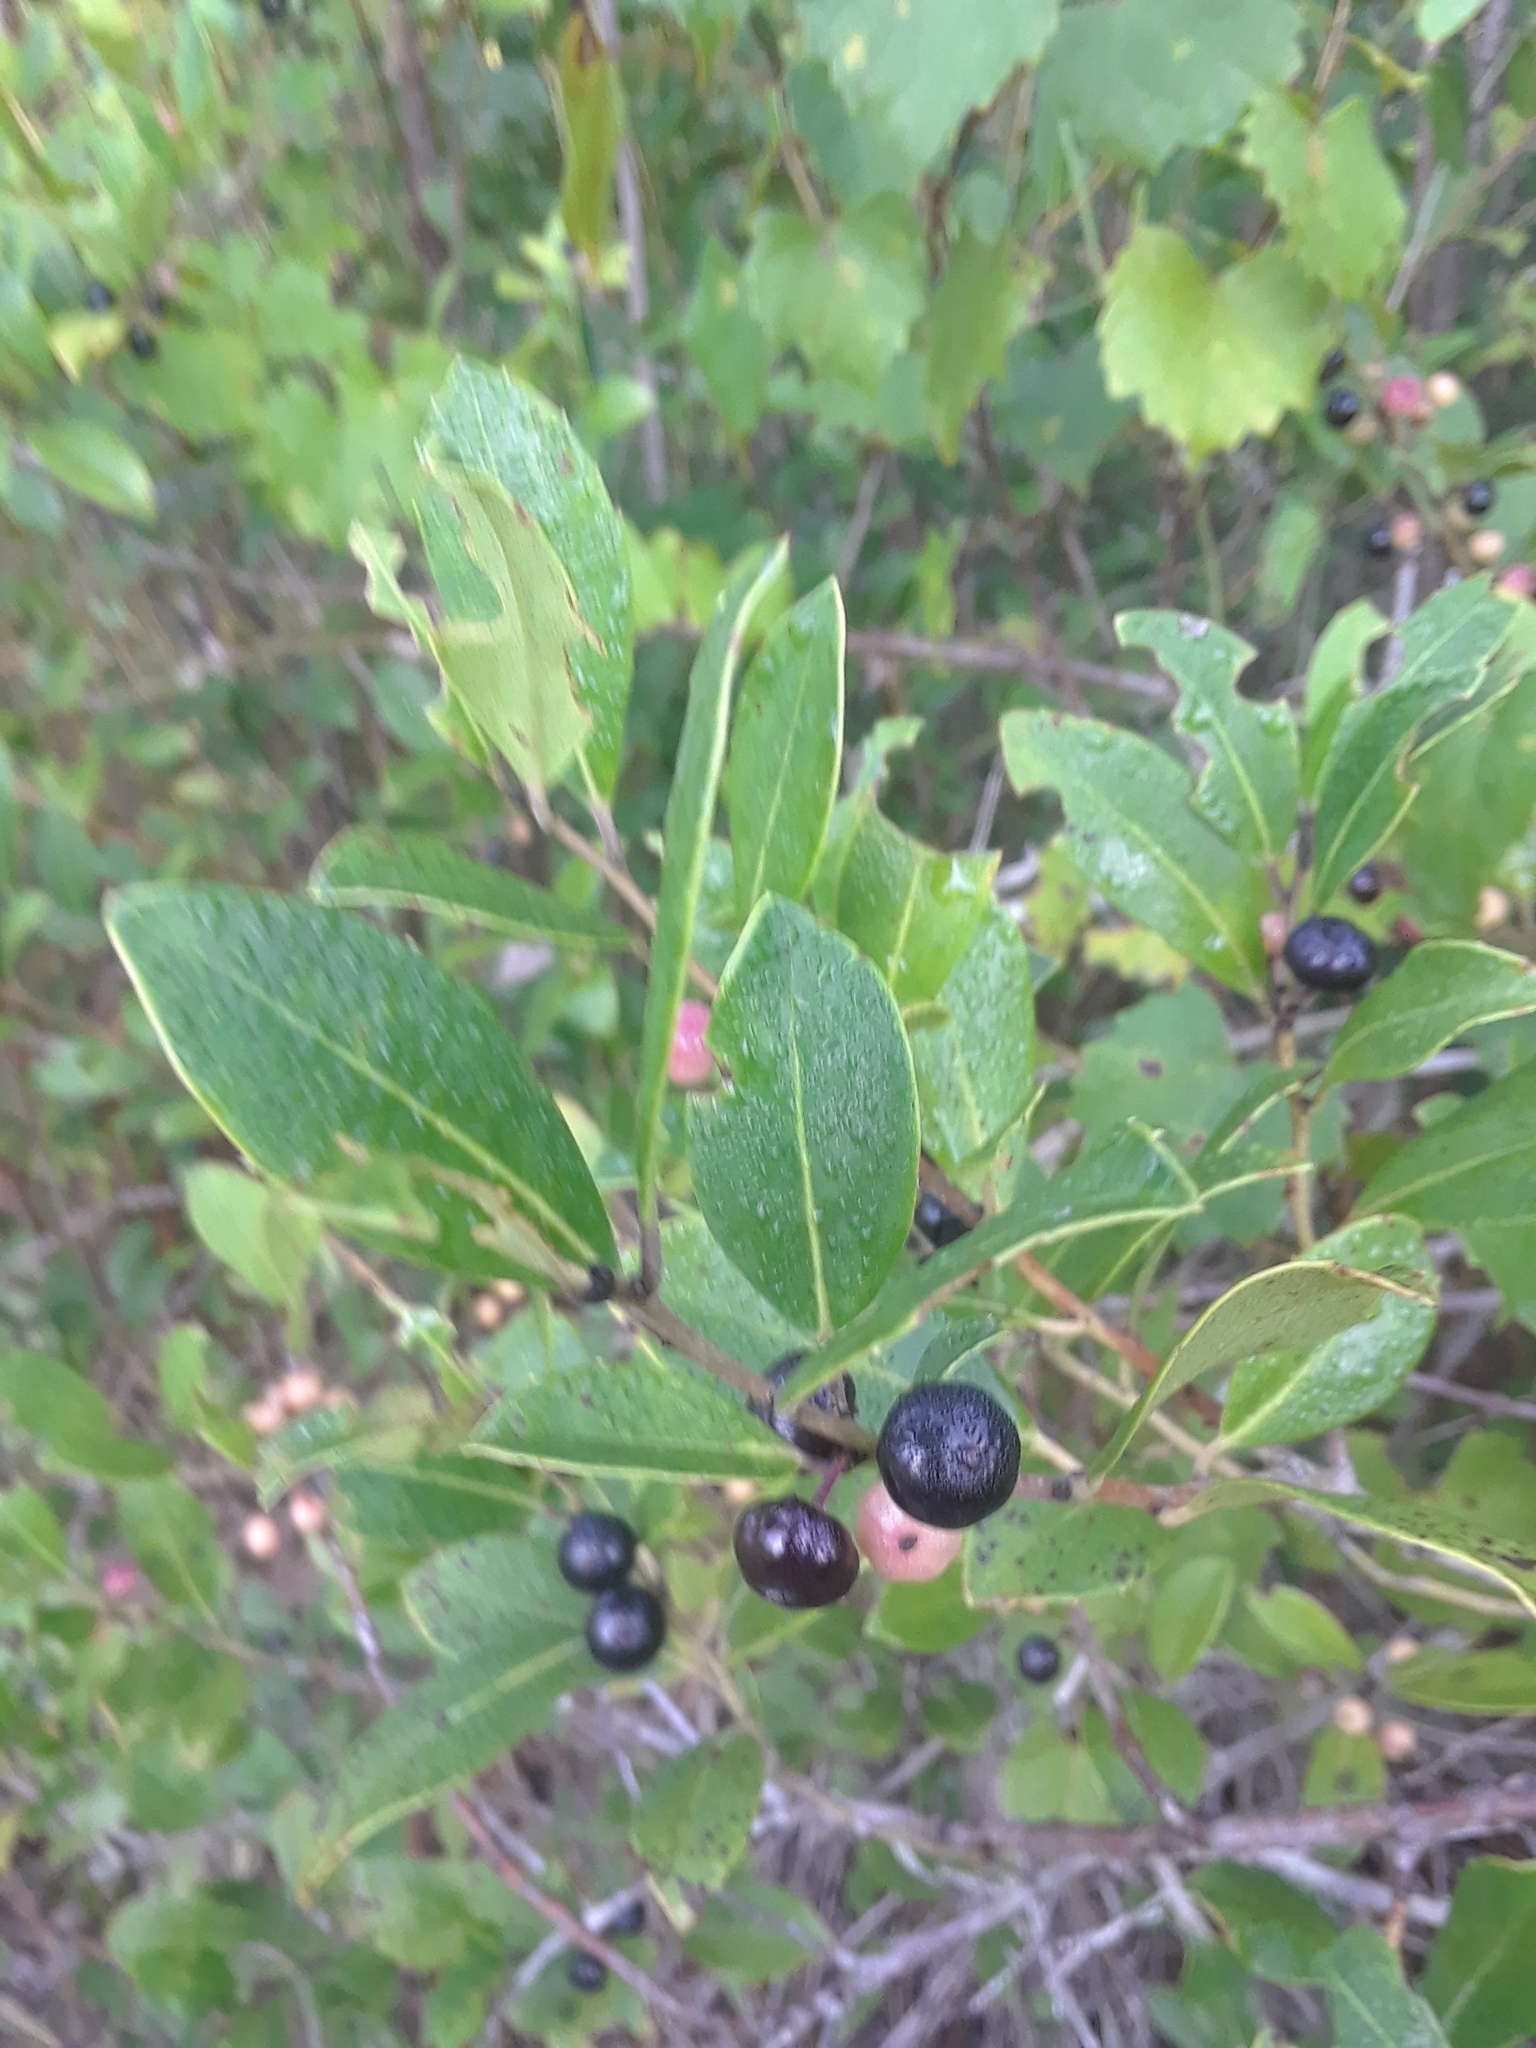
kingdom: Plantae
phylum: Tracheophyta
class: Magnoliopsida
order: Aquifoliales
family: Aquifoliaceae
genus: Ilex
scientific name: Ilex glabra
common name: Bitter gallberry
